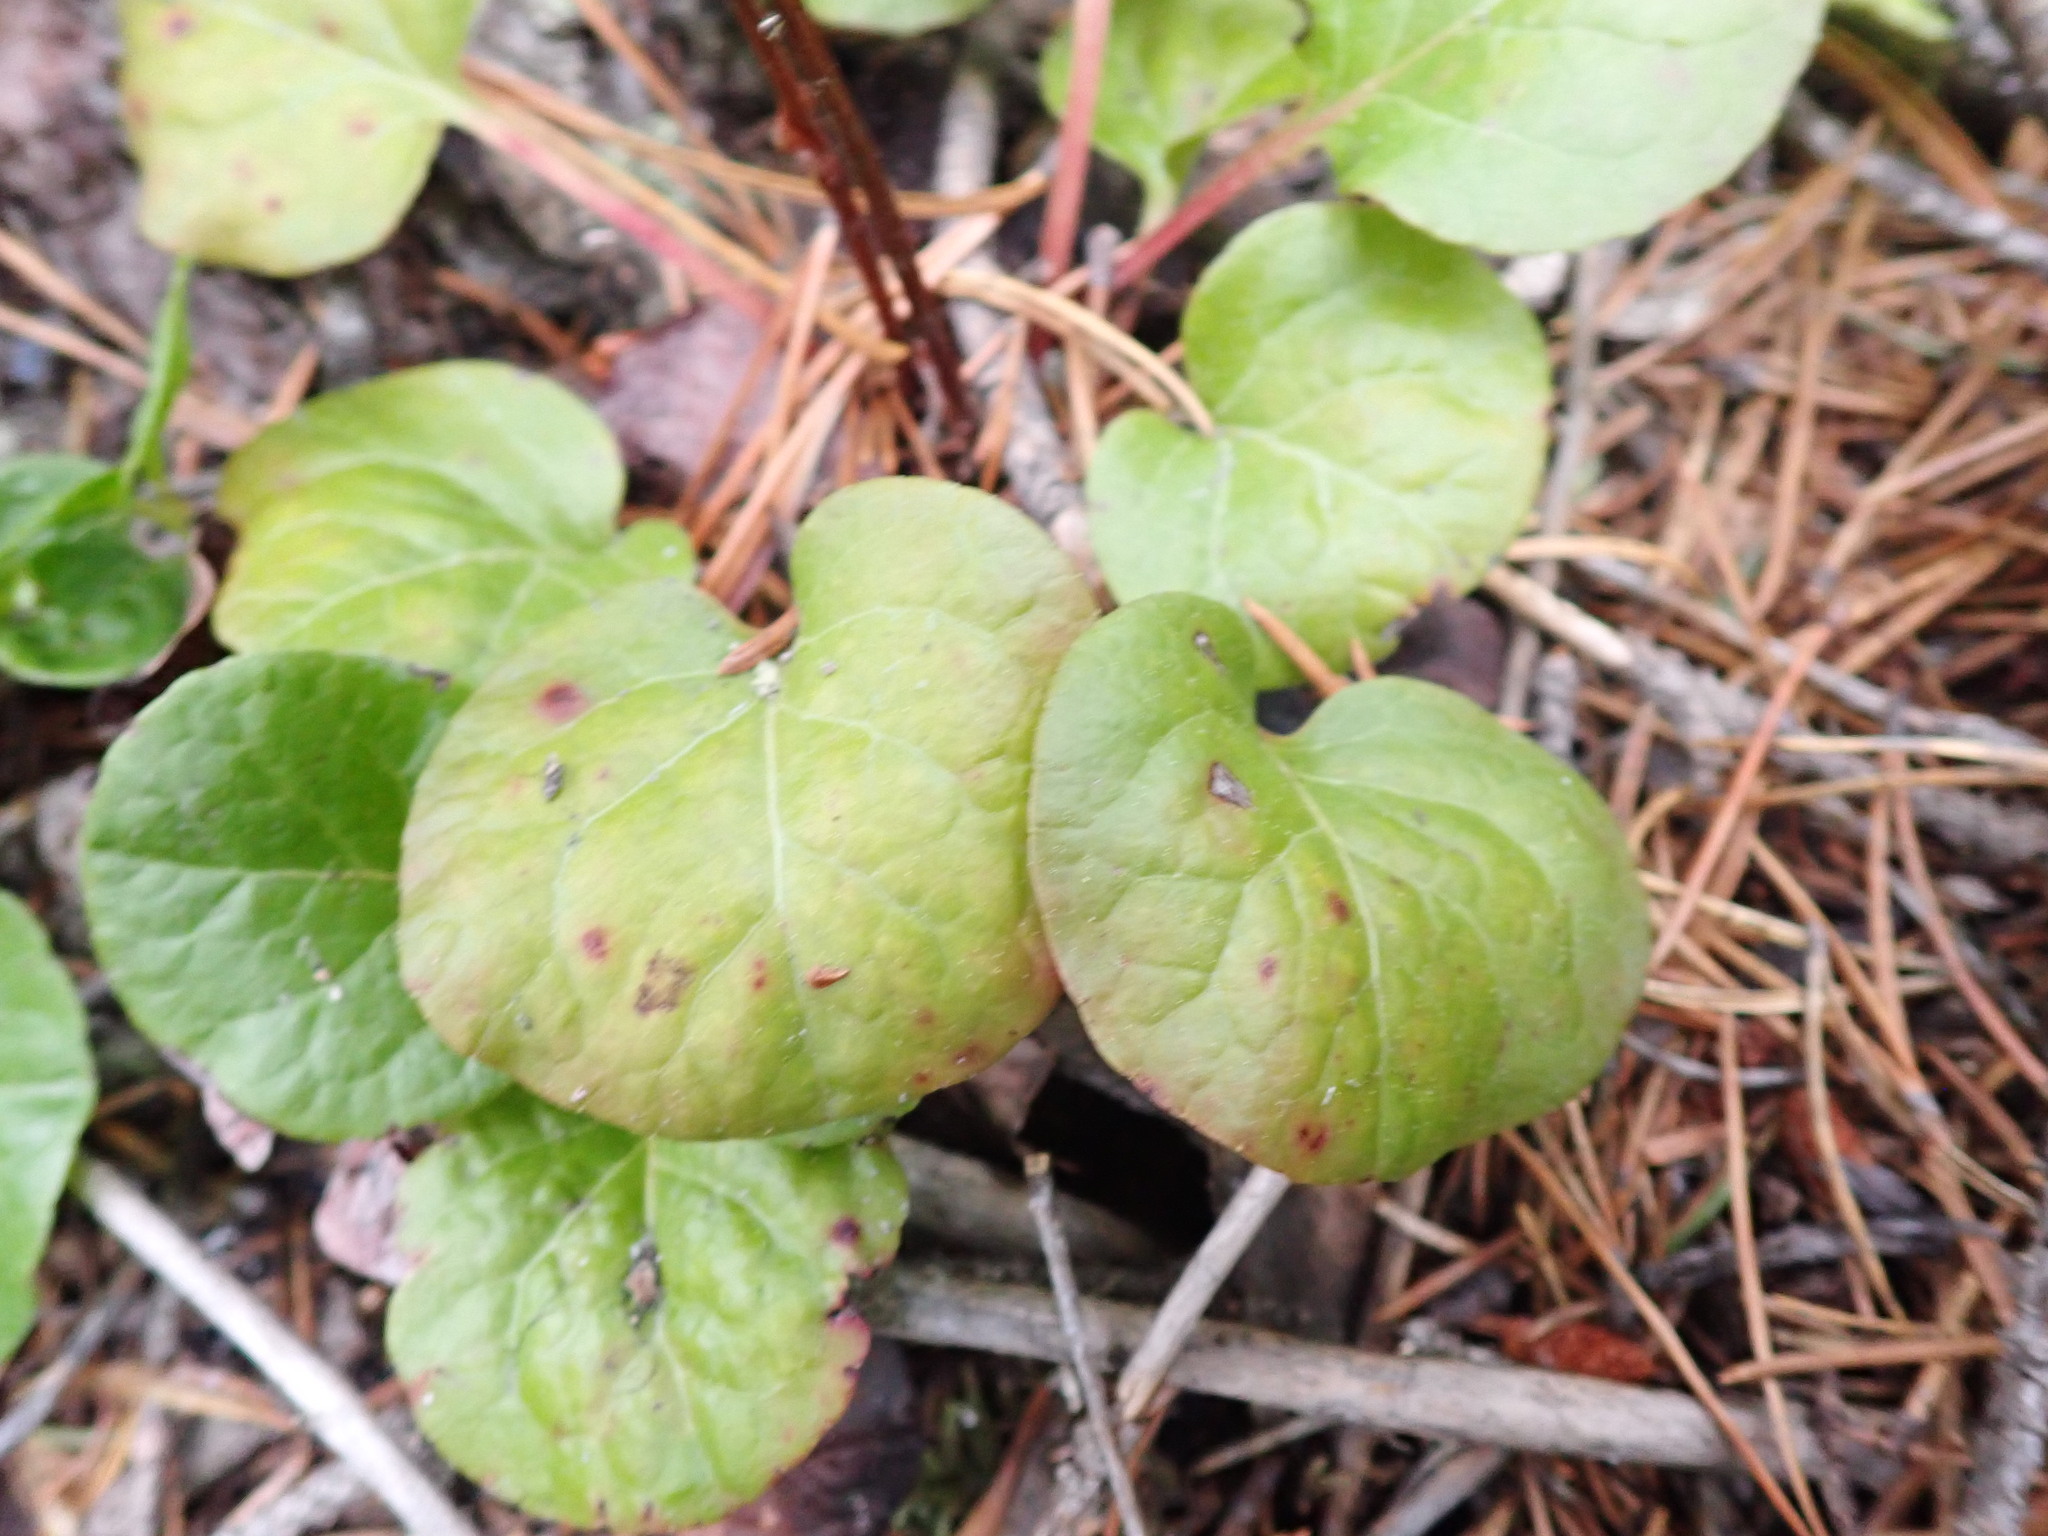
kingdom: Plantae
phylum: Tracheophyta
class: Magnoliopsida
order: Ericales
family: Ericaceae
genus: Pyrola
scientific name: Pyrola asarifolia
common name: Bog wintergreen
